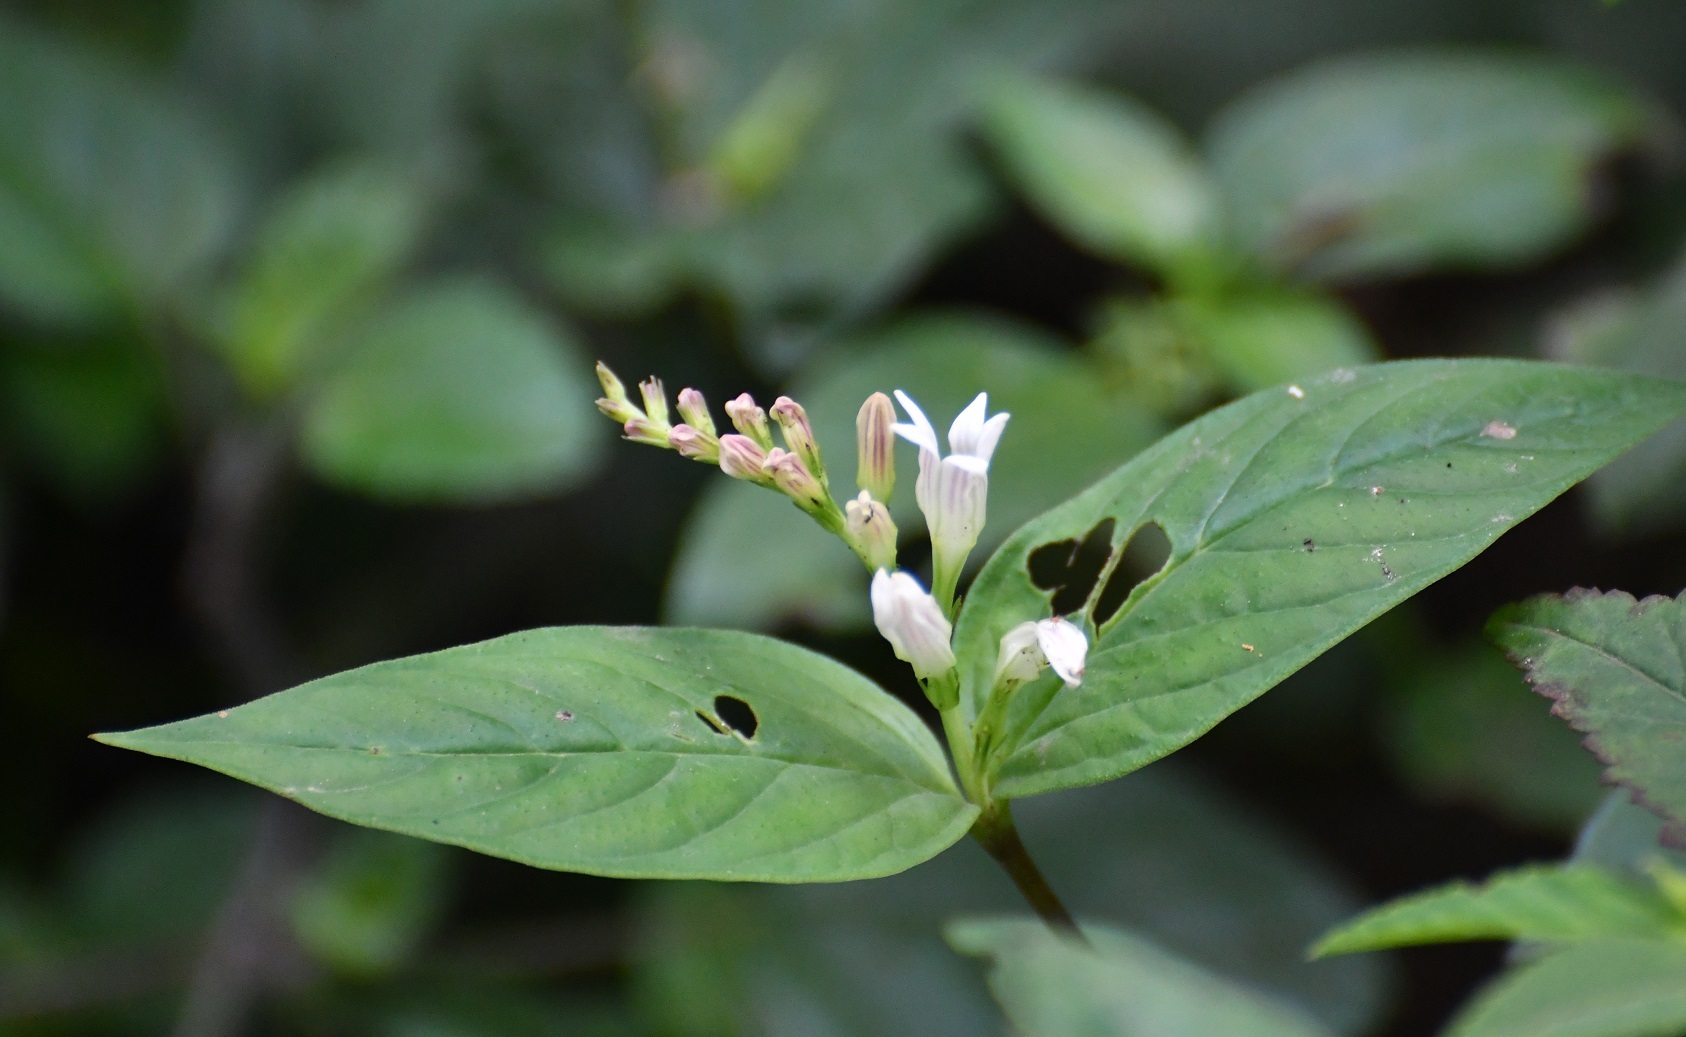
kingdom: Plantae
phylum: Tracheophyta
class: Magnoliopsida
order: Gentianales
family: Loganiaceae
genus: Spigelia
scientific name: Spigelia humboldtiana
